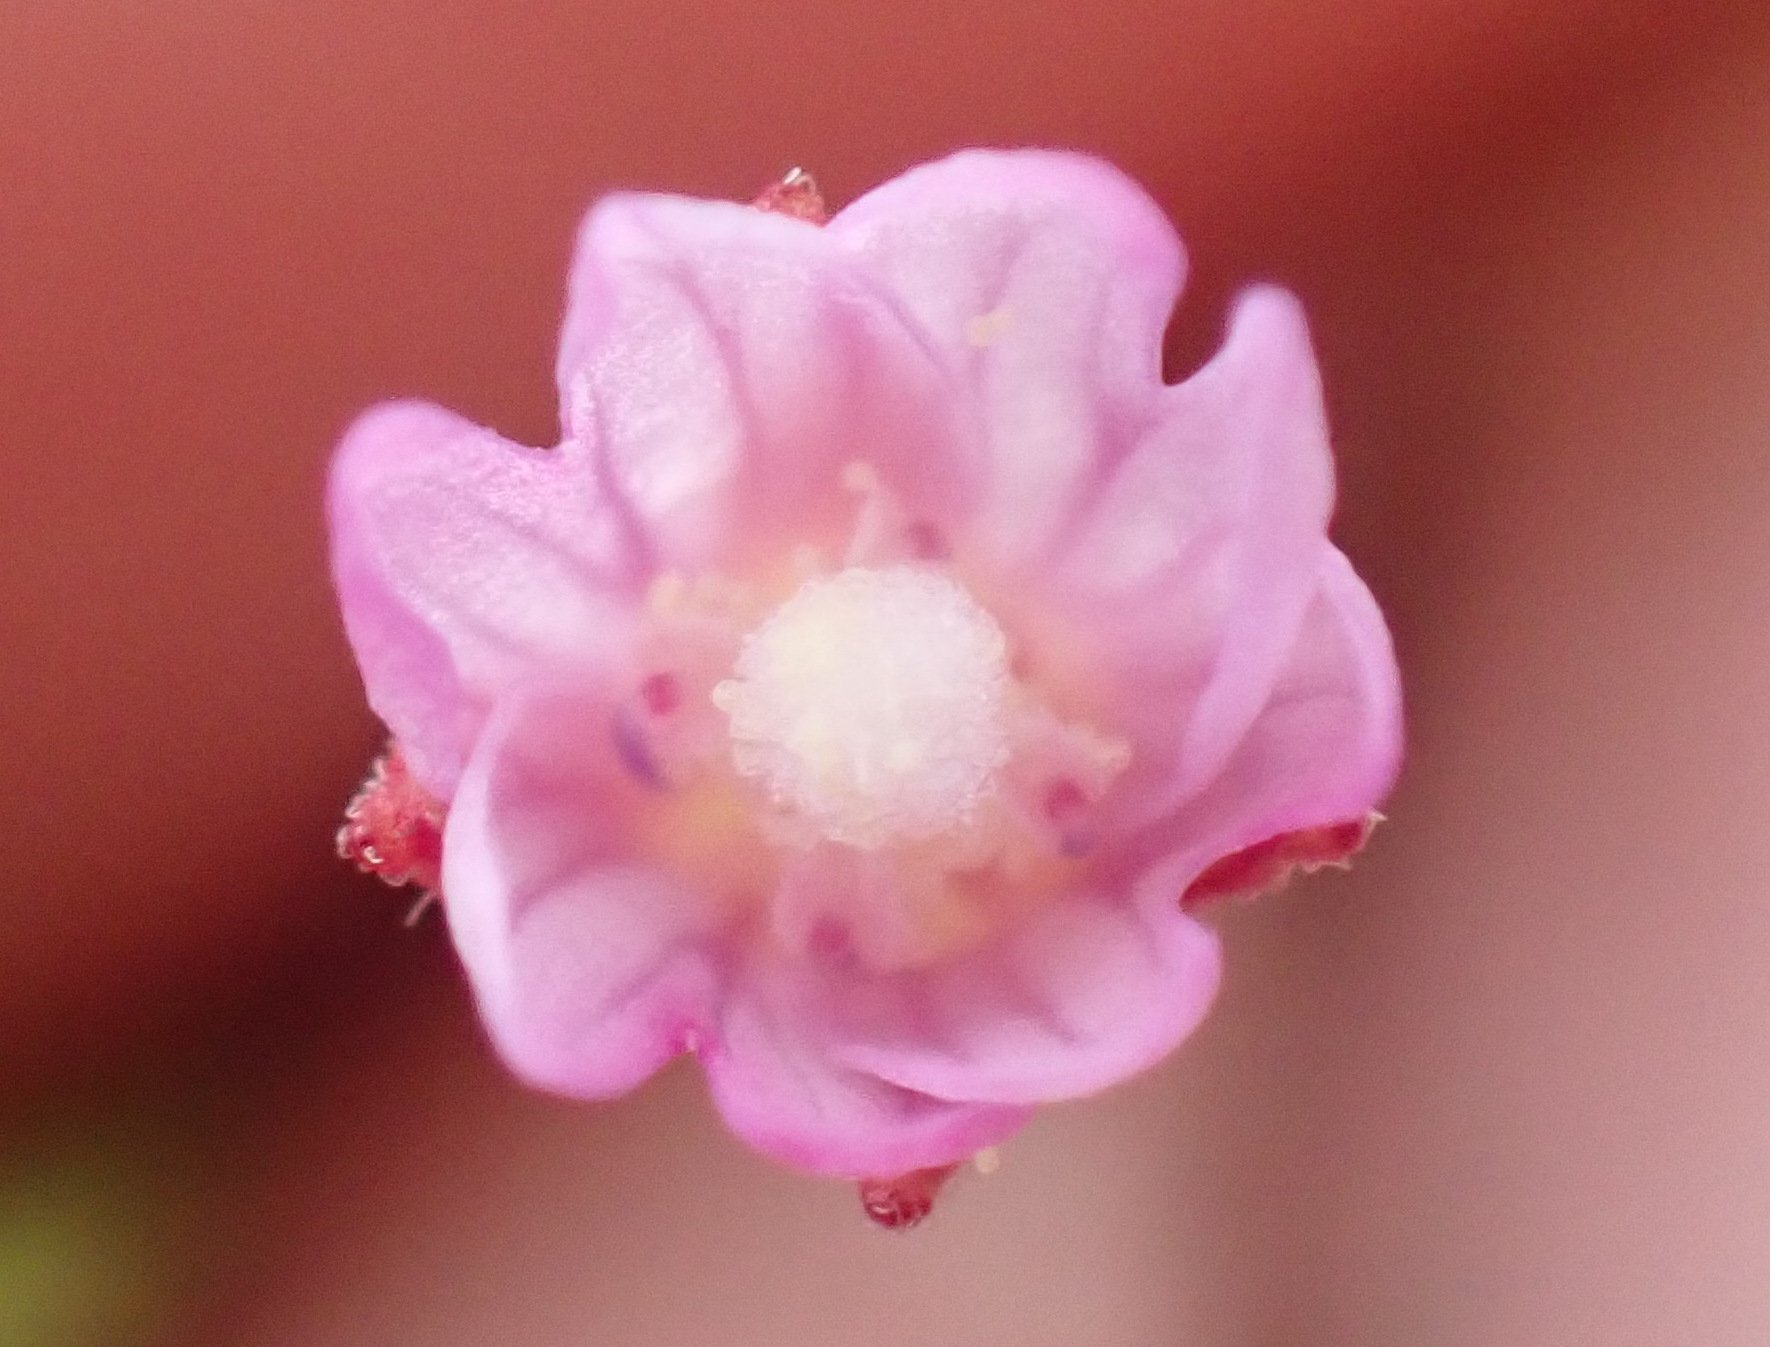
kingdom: Plantae
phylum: Tracheophyta
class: Magnoliopsida
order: Myrtales
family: Onagraceae
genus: Epilobium
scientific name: Epilobium ciliatum
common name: American willowherb
